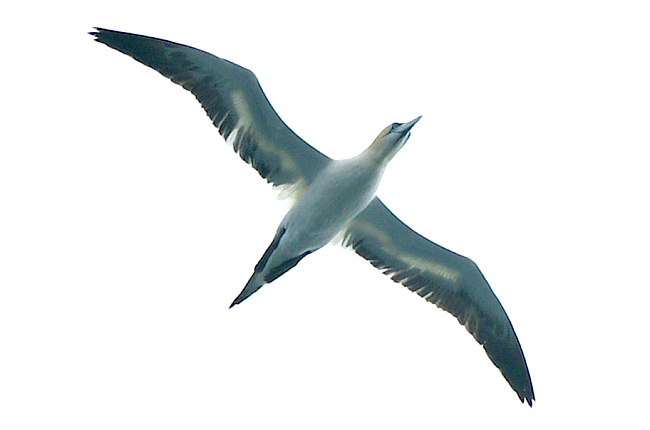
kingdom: Animalia
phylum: Chordata
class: Aves
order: Suliformes
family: Sulidae
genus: Morus
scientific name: Morus bassanus
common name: Northern gannet
